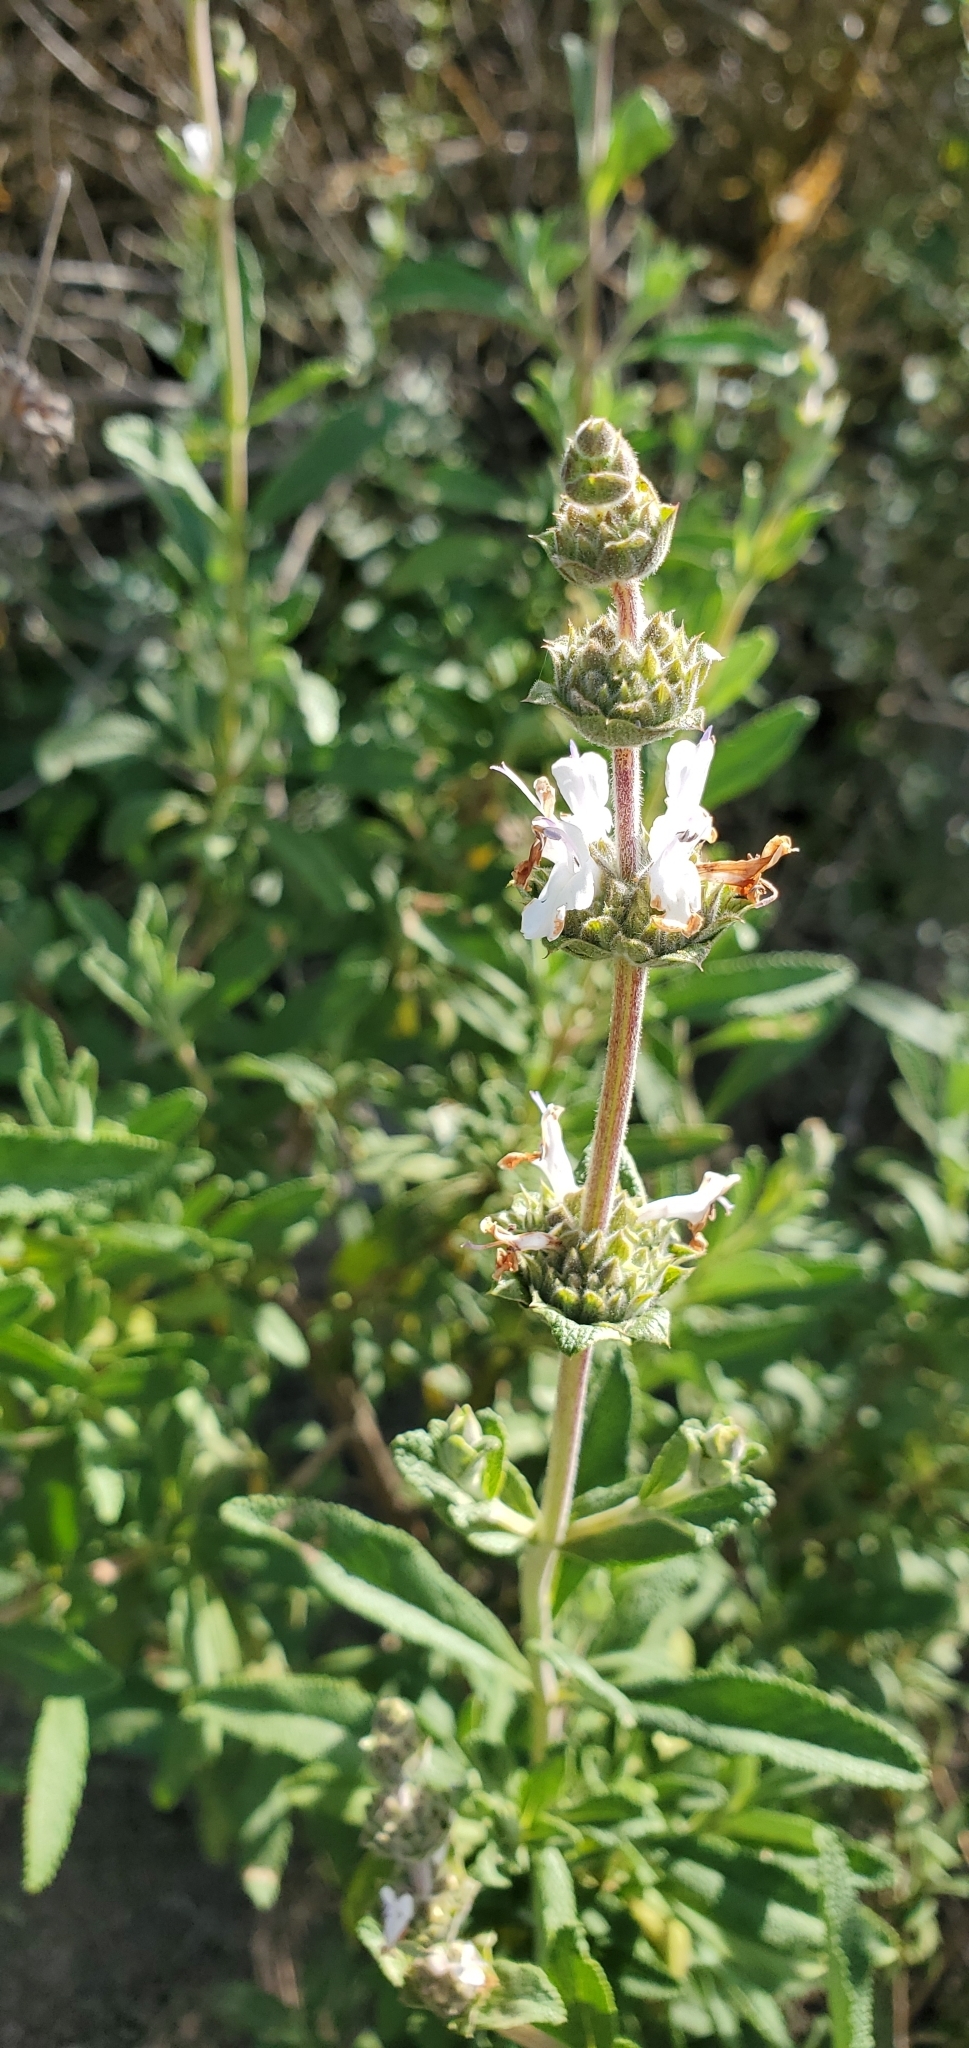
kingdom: Plantae
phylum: Tracheophyta
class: Magnoliopsida
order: Lamiales
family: Lamiaceae
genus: Salvia
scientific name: Salvia mellifera
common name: Black sage
